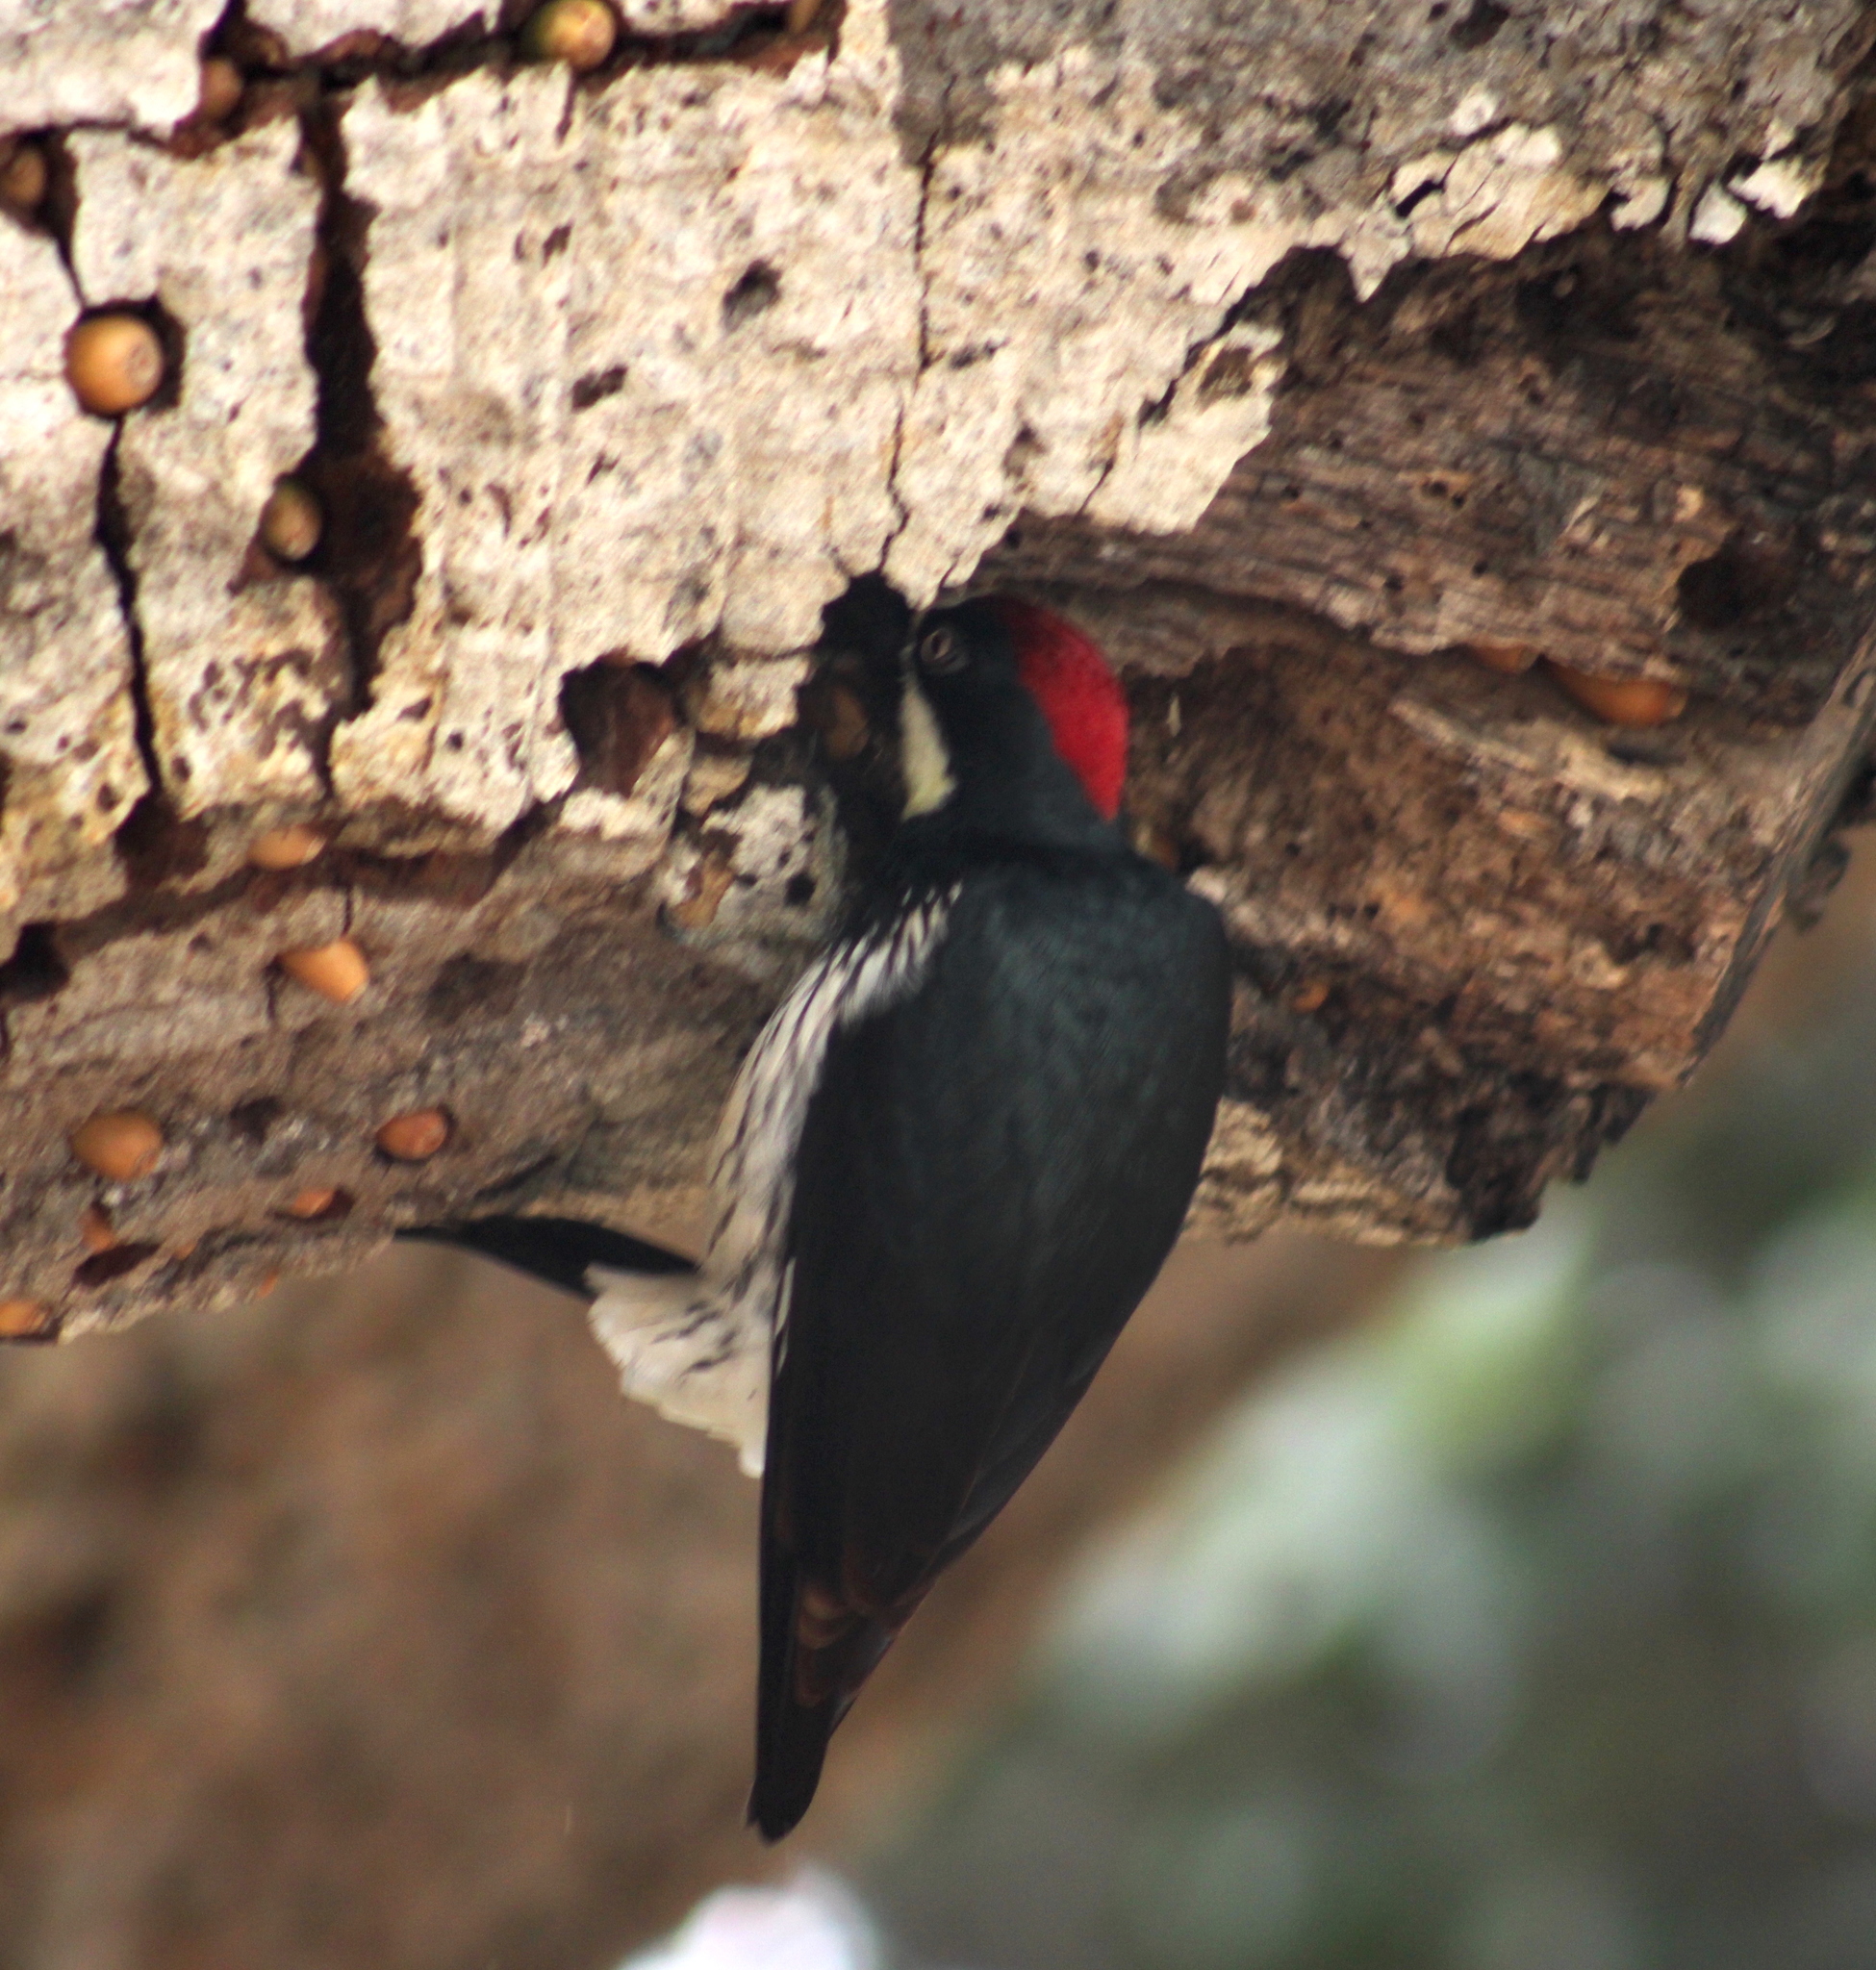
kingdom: Animalia
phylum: Chordata
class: Aves
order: Piciformes
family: Picidae
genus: Melanerpes
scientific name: Melanerpes formicivorus
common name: Acorn woodpecker
